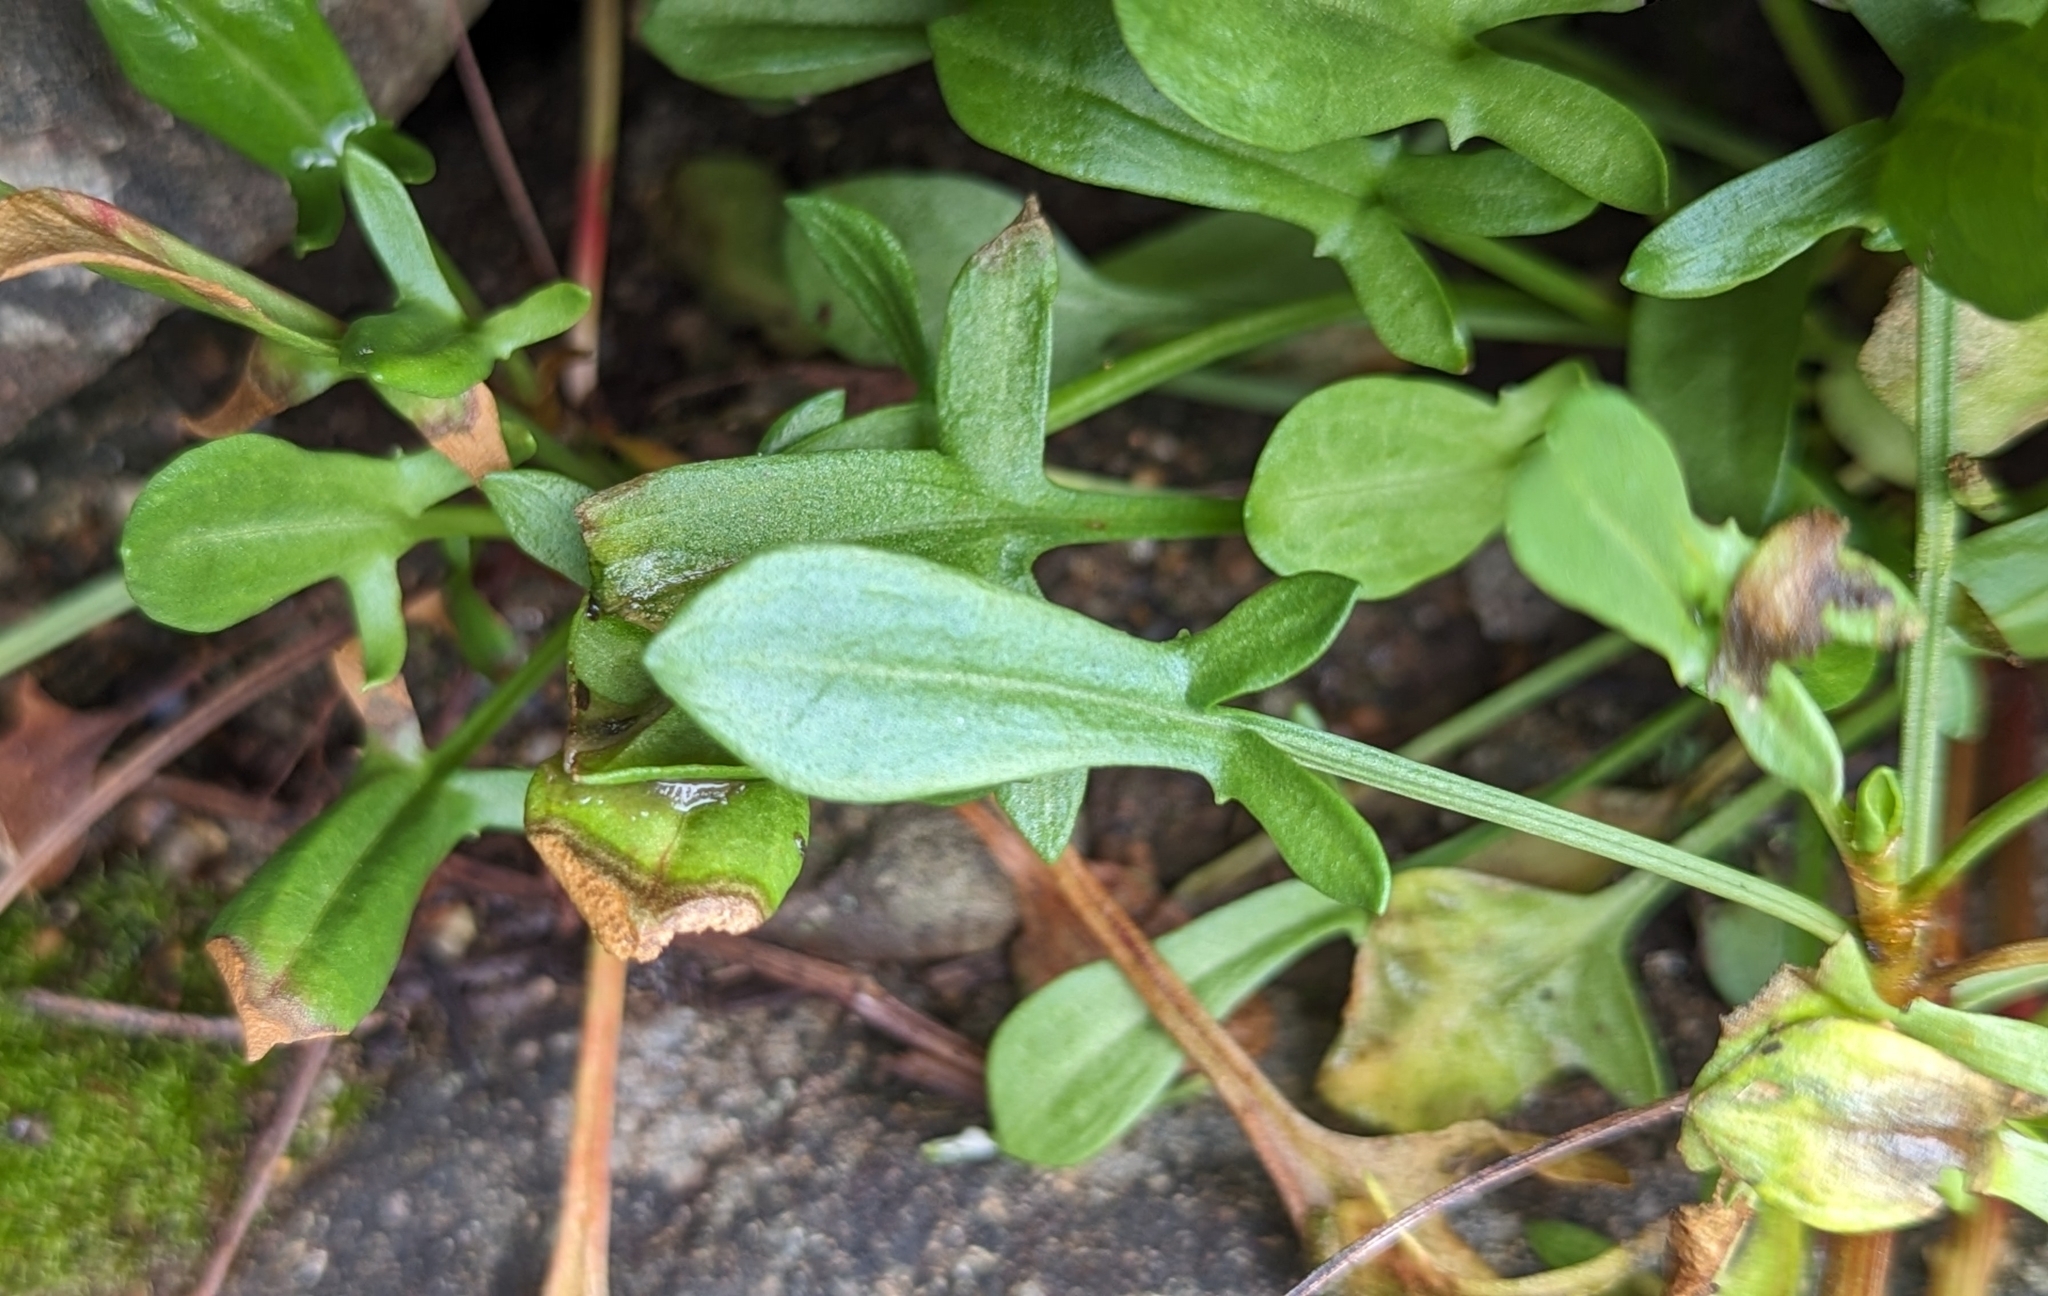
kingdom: Plantae
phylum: Tracheophyta
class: Magnoliopsida
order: Caryophyllales
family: Polygonaceae
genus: Rumex
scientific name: Rumex acetosella
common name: Common sheep sorrel
